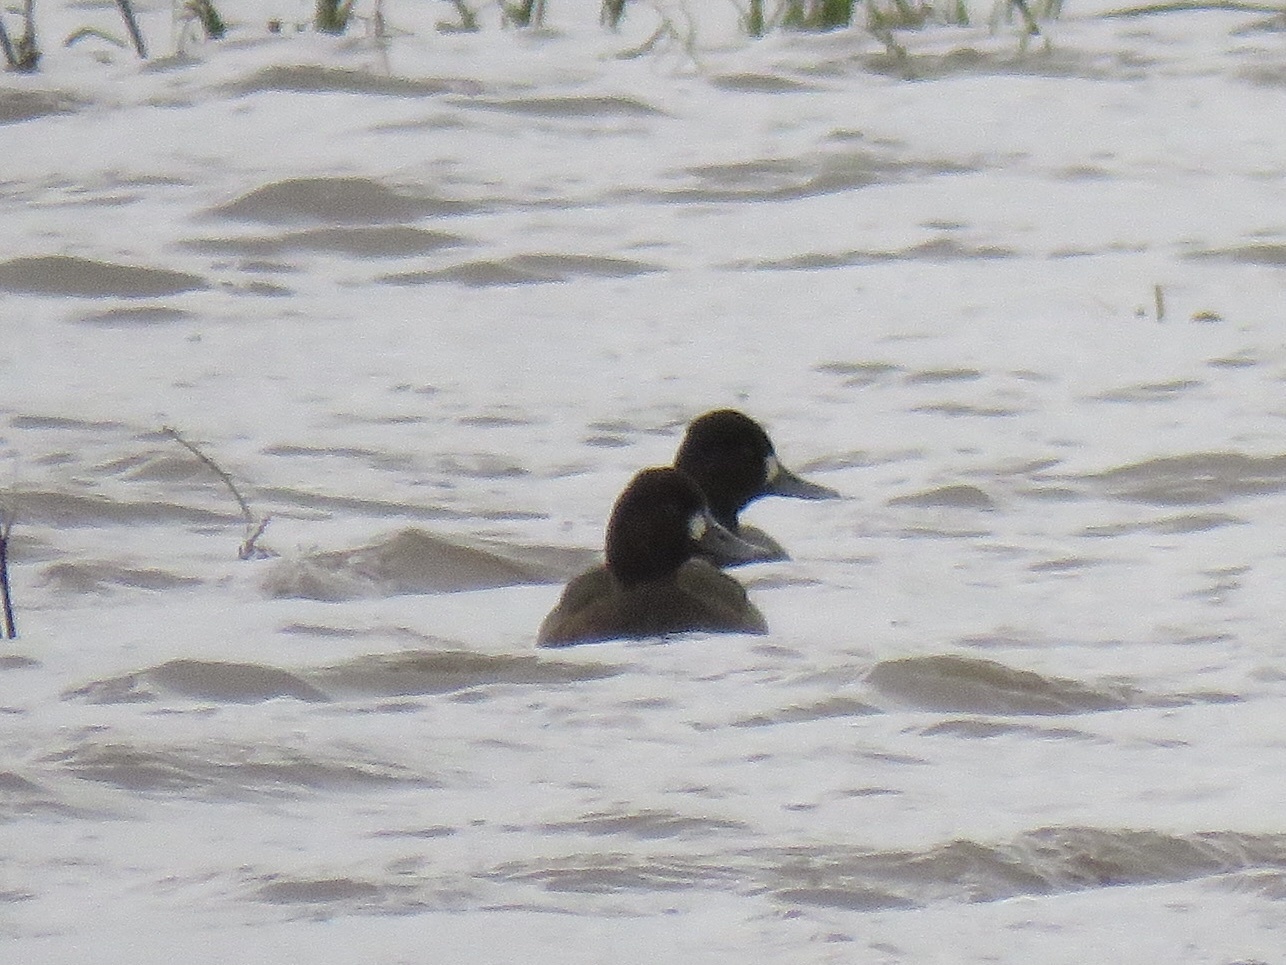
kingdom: Animalia
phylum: Chordata
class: Aves
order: Anseriformes
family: Anatidae
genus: Aythya
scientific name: Aythya affinis
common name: Lesser scaup
